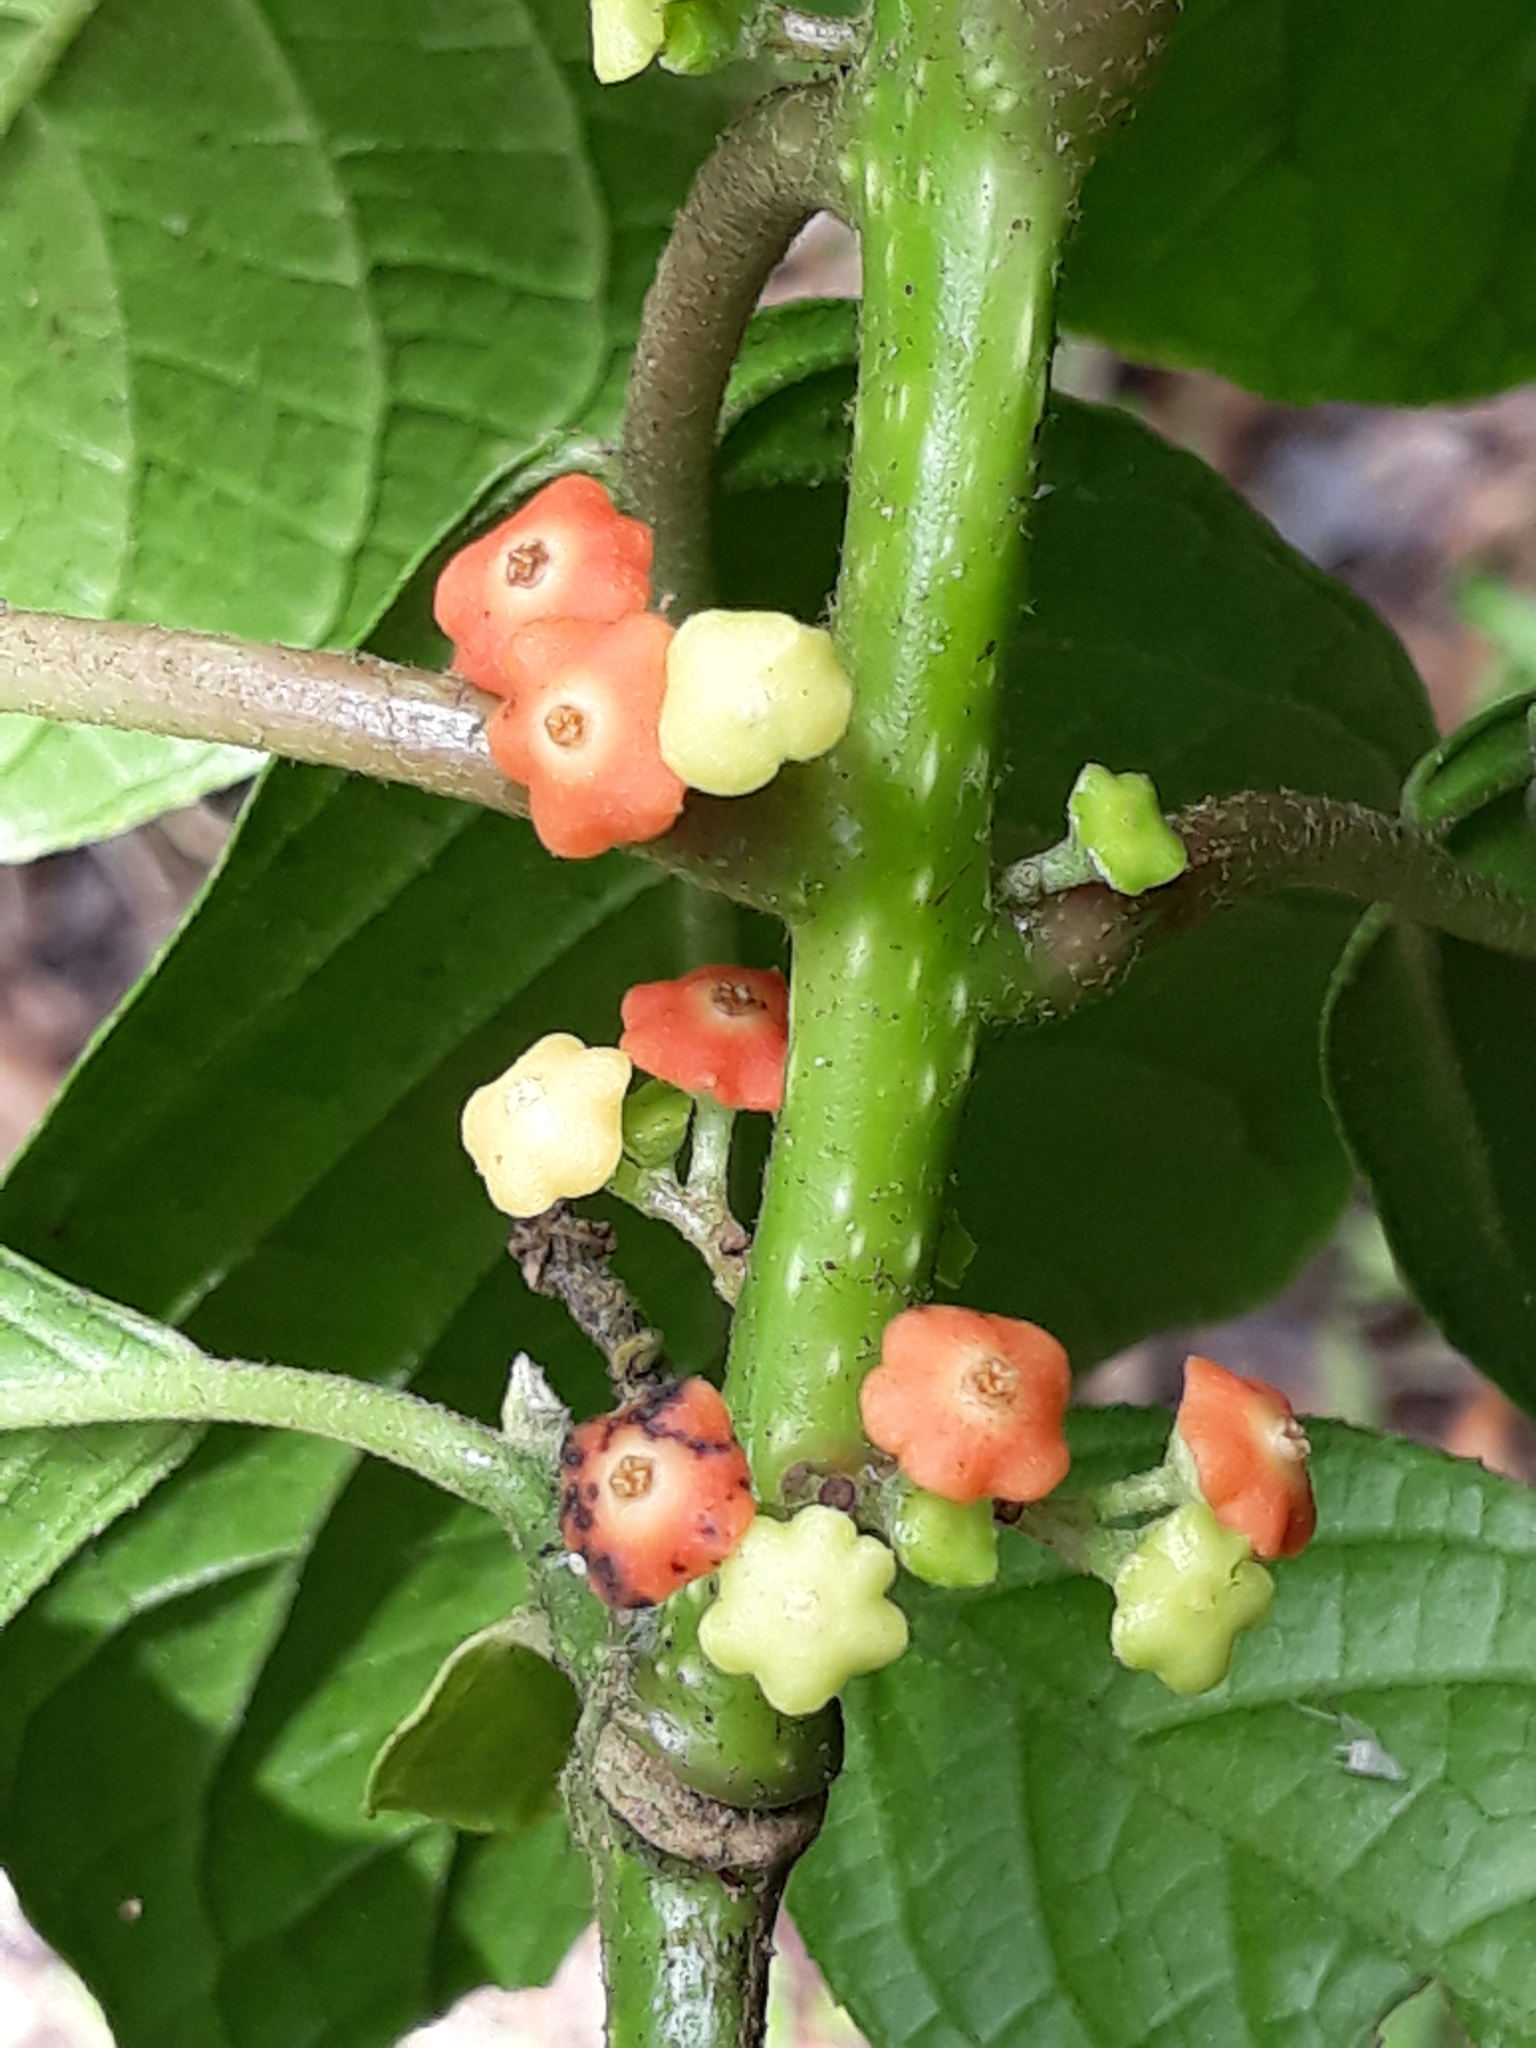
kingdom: Plantae
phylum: Tracheophyta
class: Magnoliopsida
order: Laurales
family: Siparunaceae
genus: Siparuna
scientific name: Siparuna thecaphora
